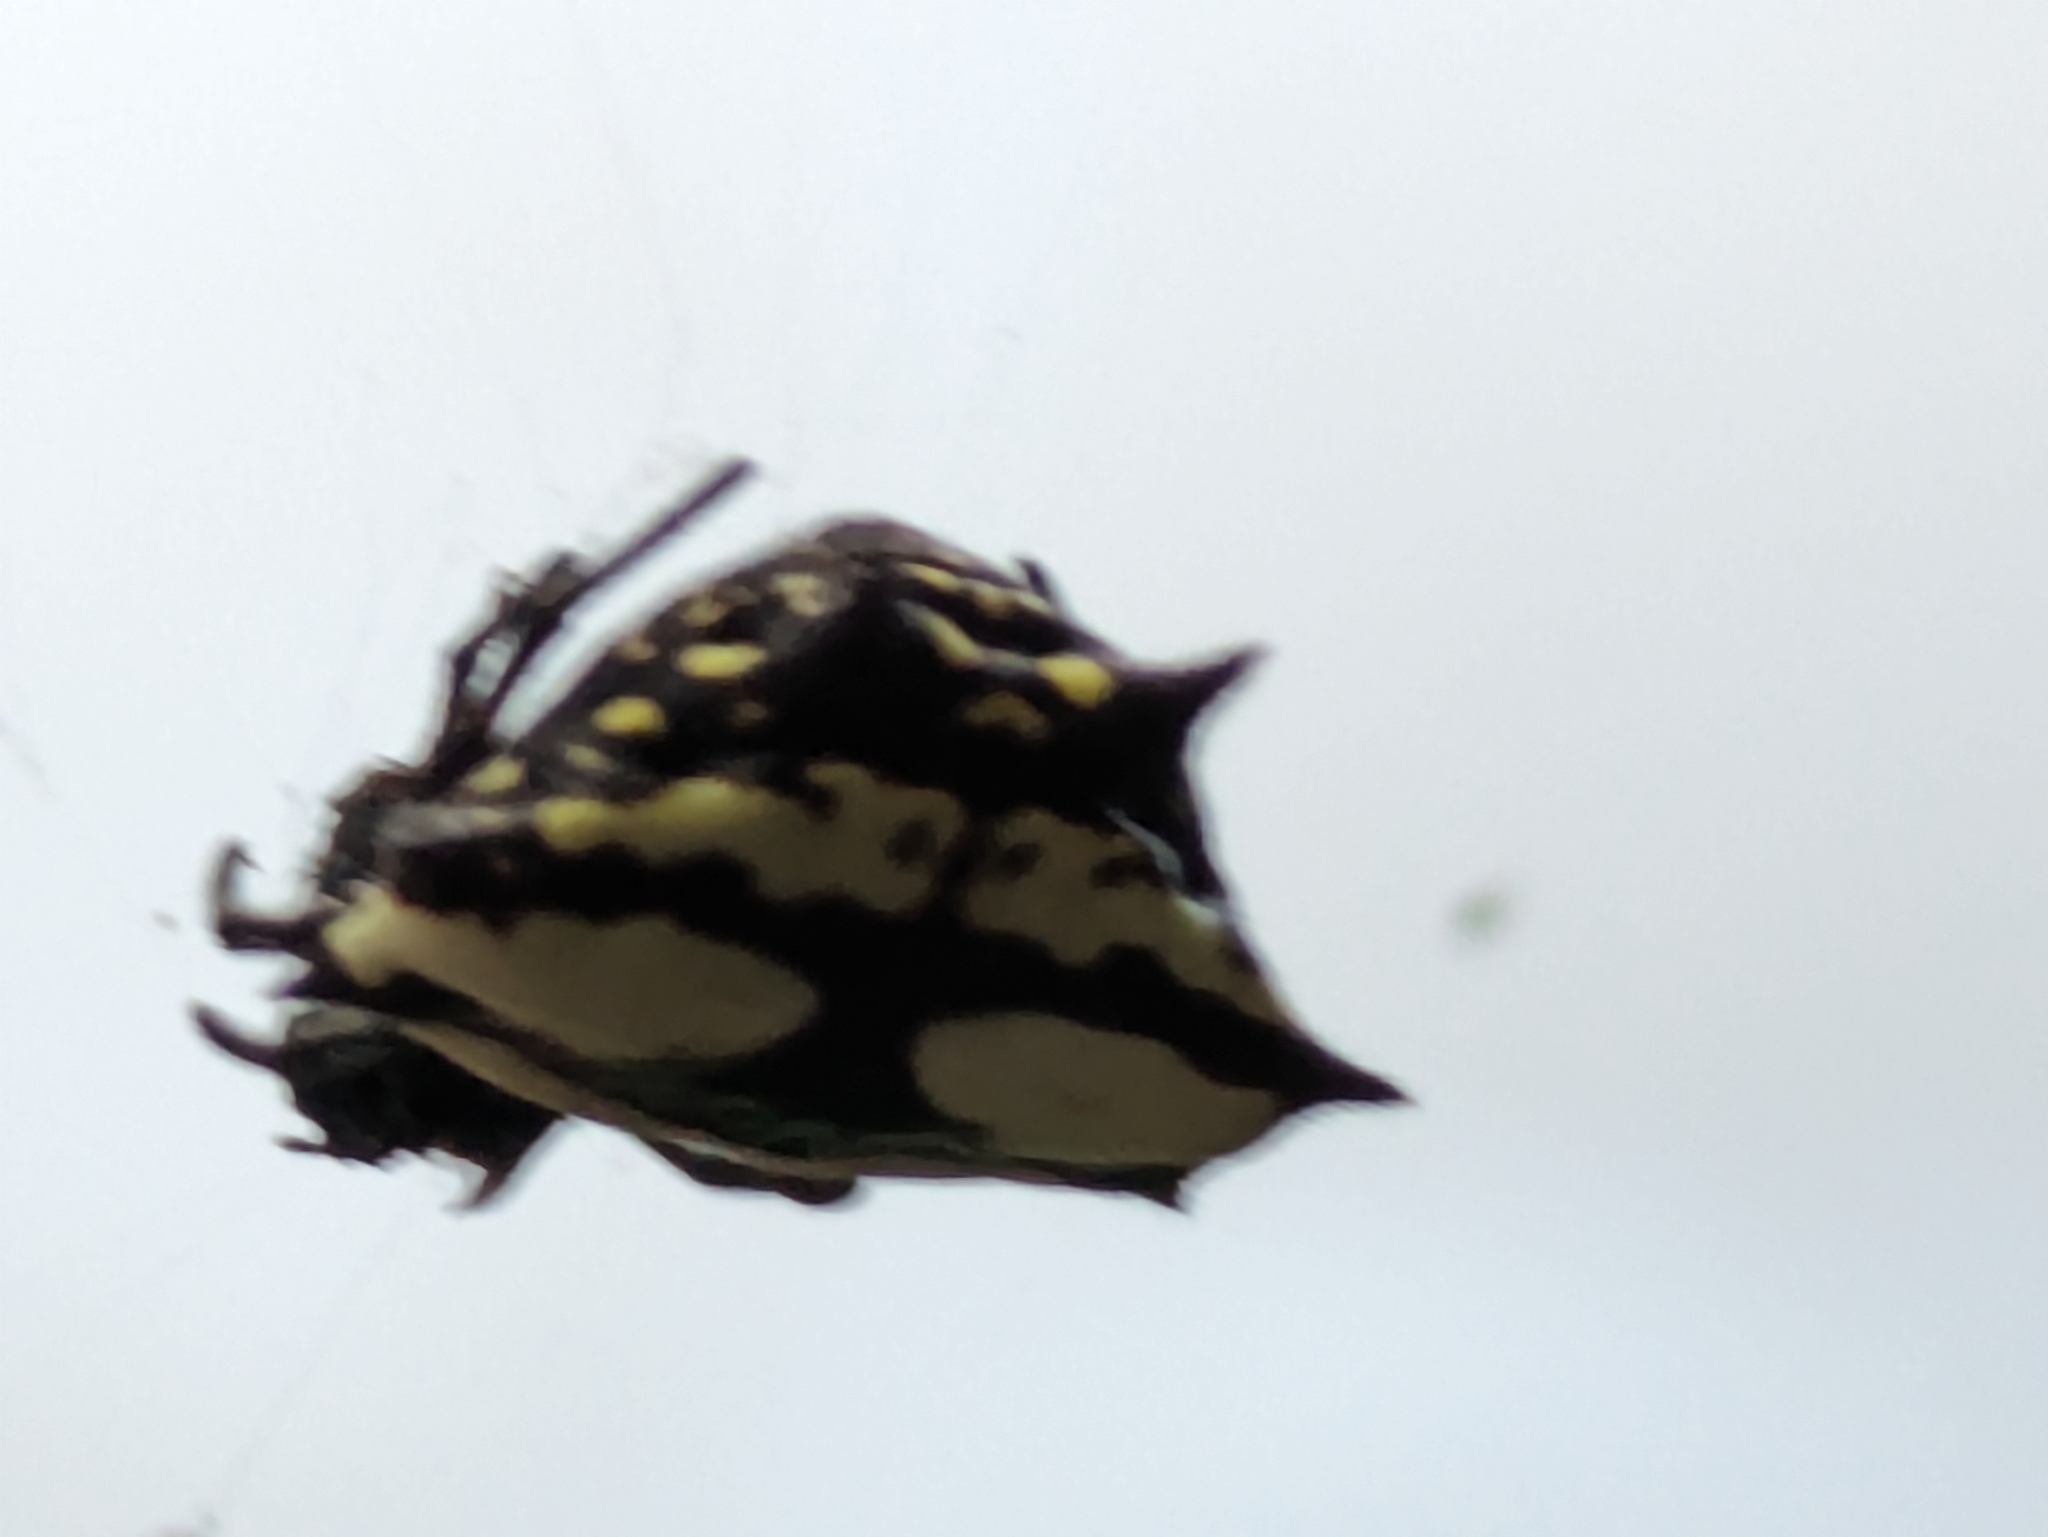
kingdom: Animalia
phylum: Arthropoda
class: Arachnida
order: Araneae
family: Araneidae
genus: Gasteracantha
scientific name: Gasteracantha cancriformis
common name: Orb weavers
